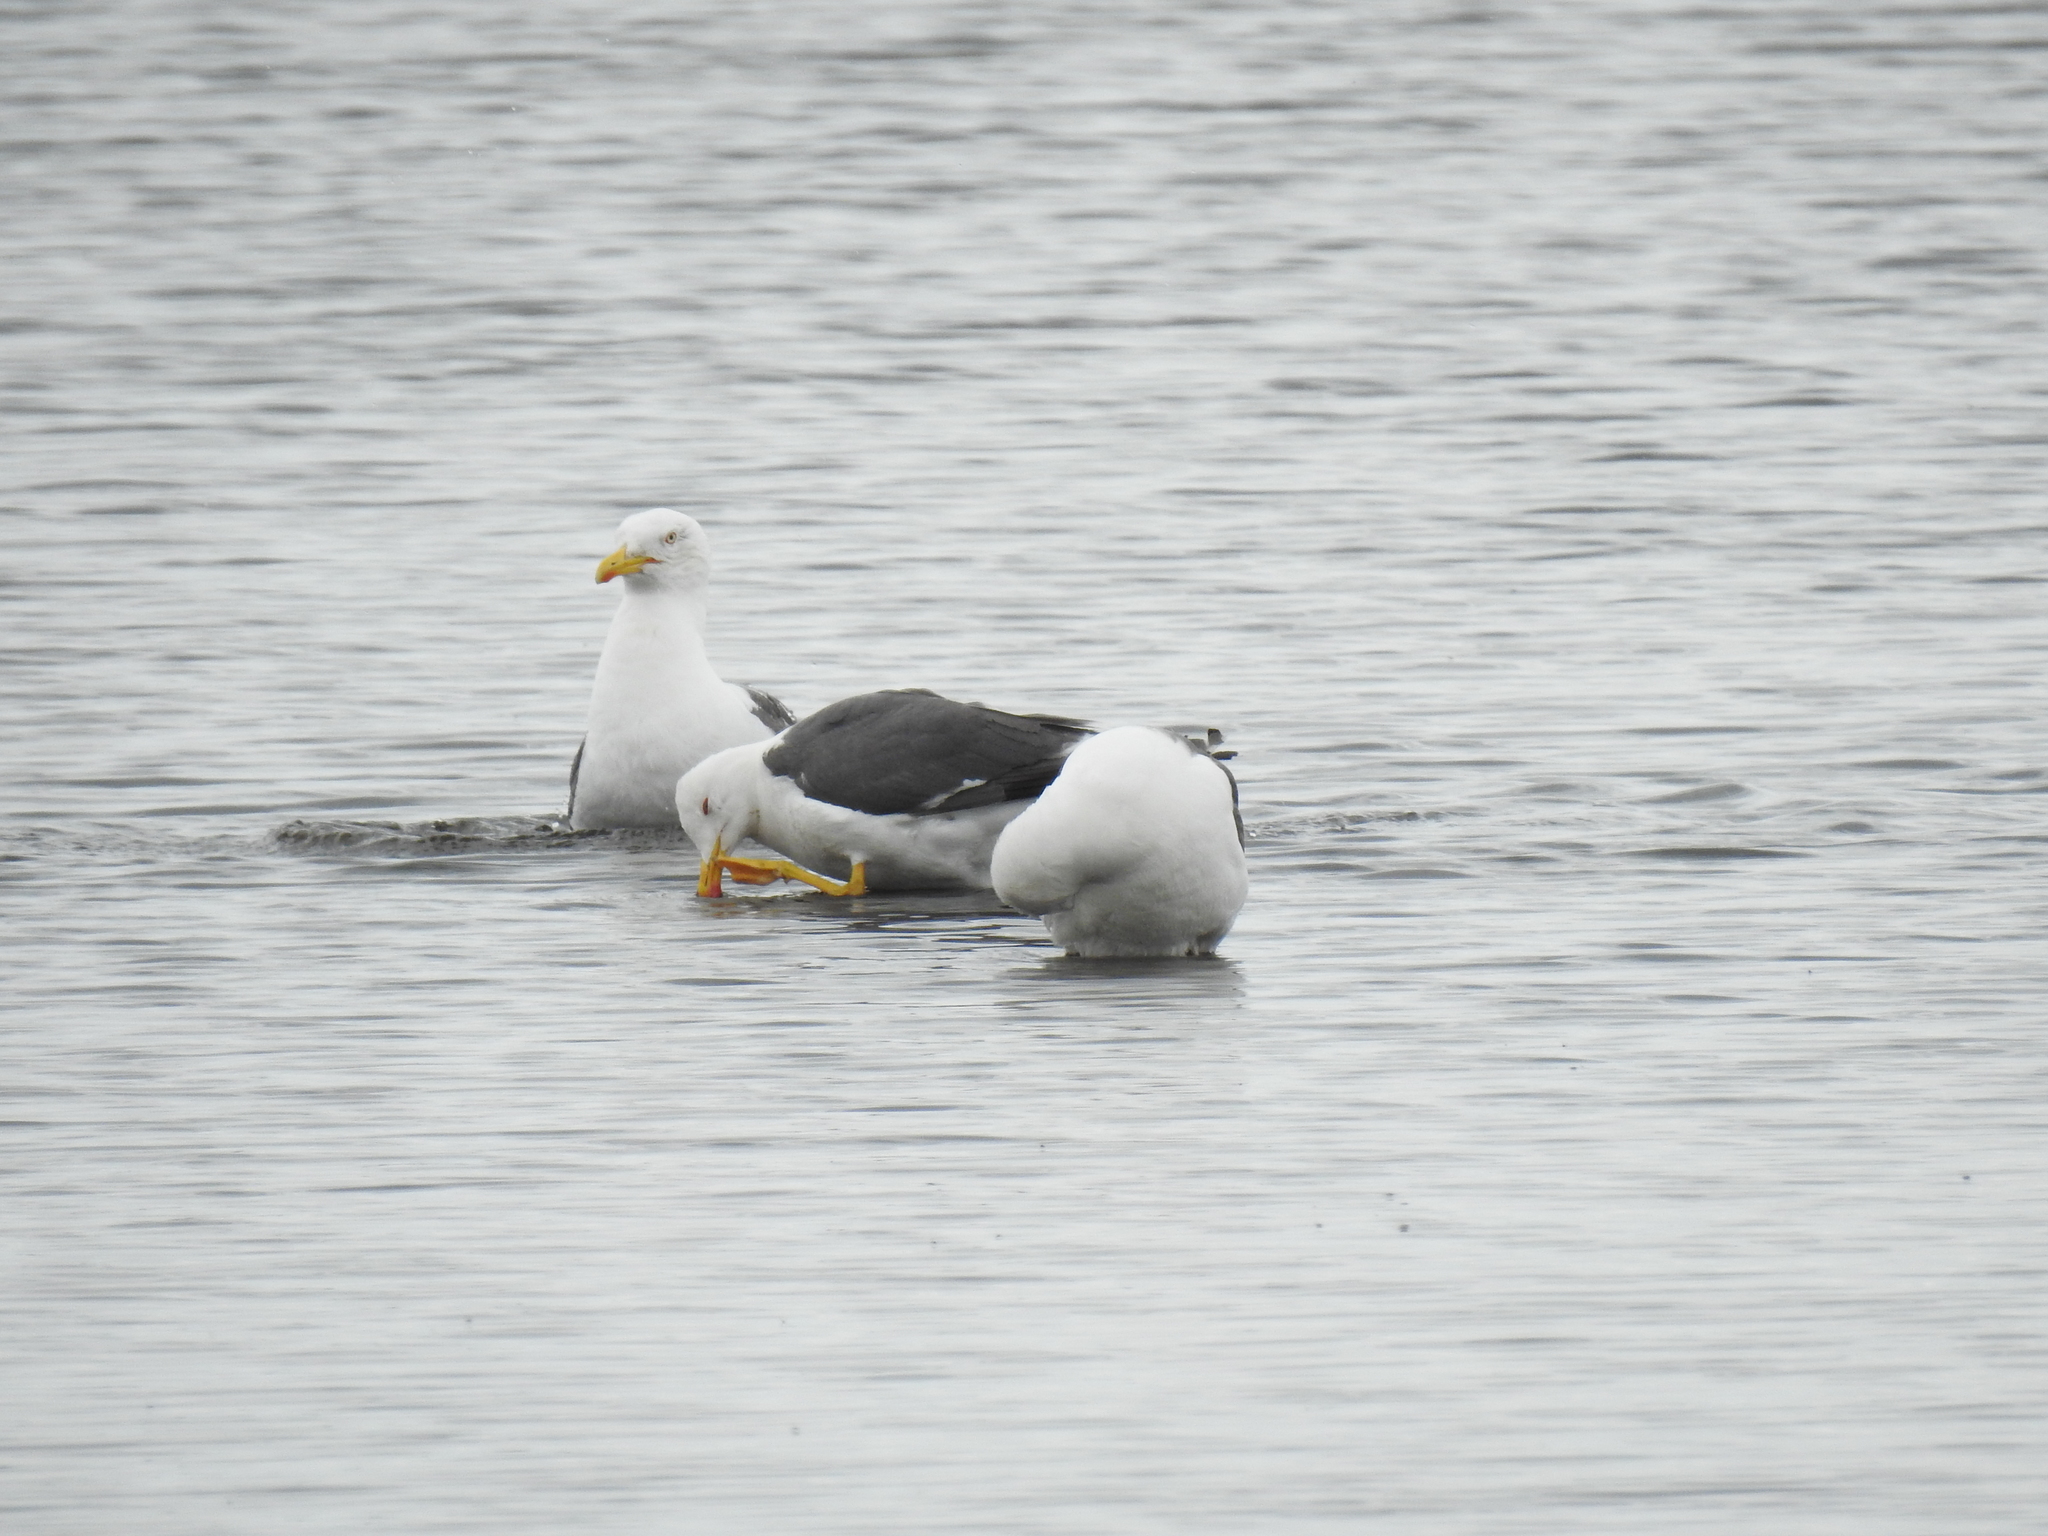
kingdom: Animalia
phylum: Chordata
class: Aves
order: Charadriiformes
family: Laridae
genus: Larus
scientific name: Larus fuscus
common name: Lesser black-backed gull
